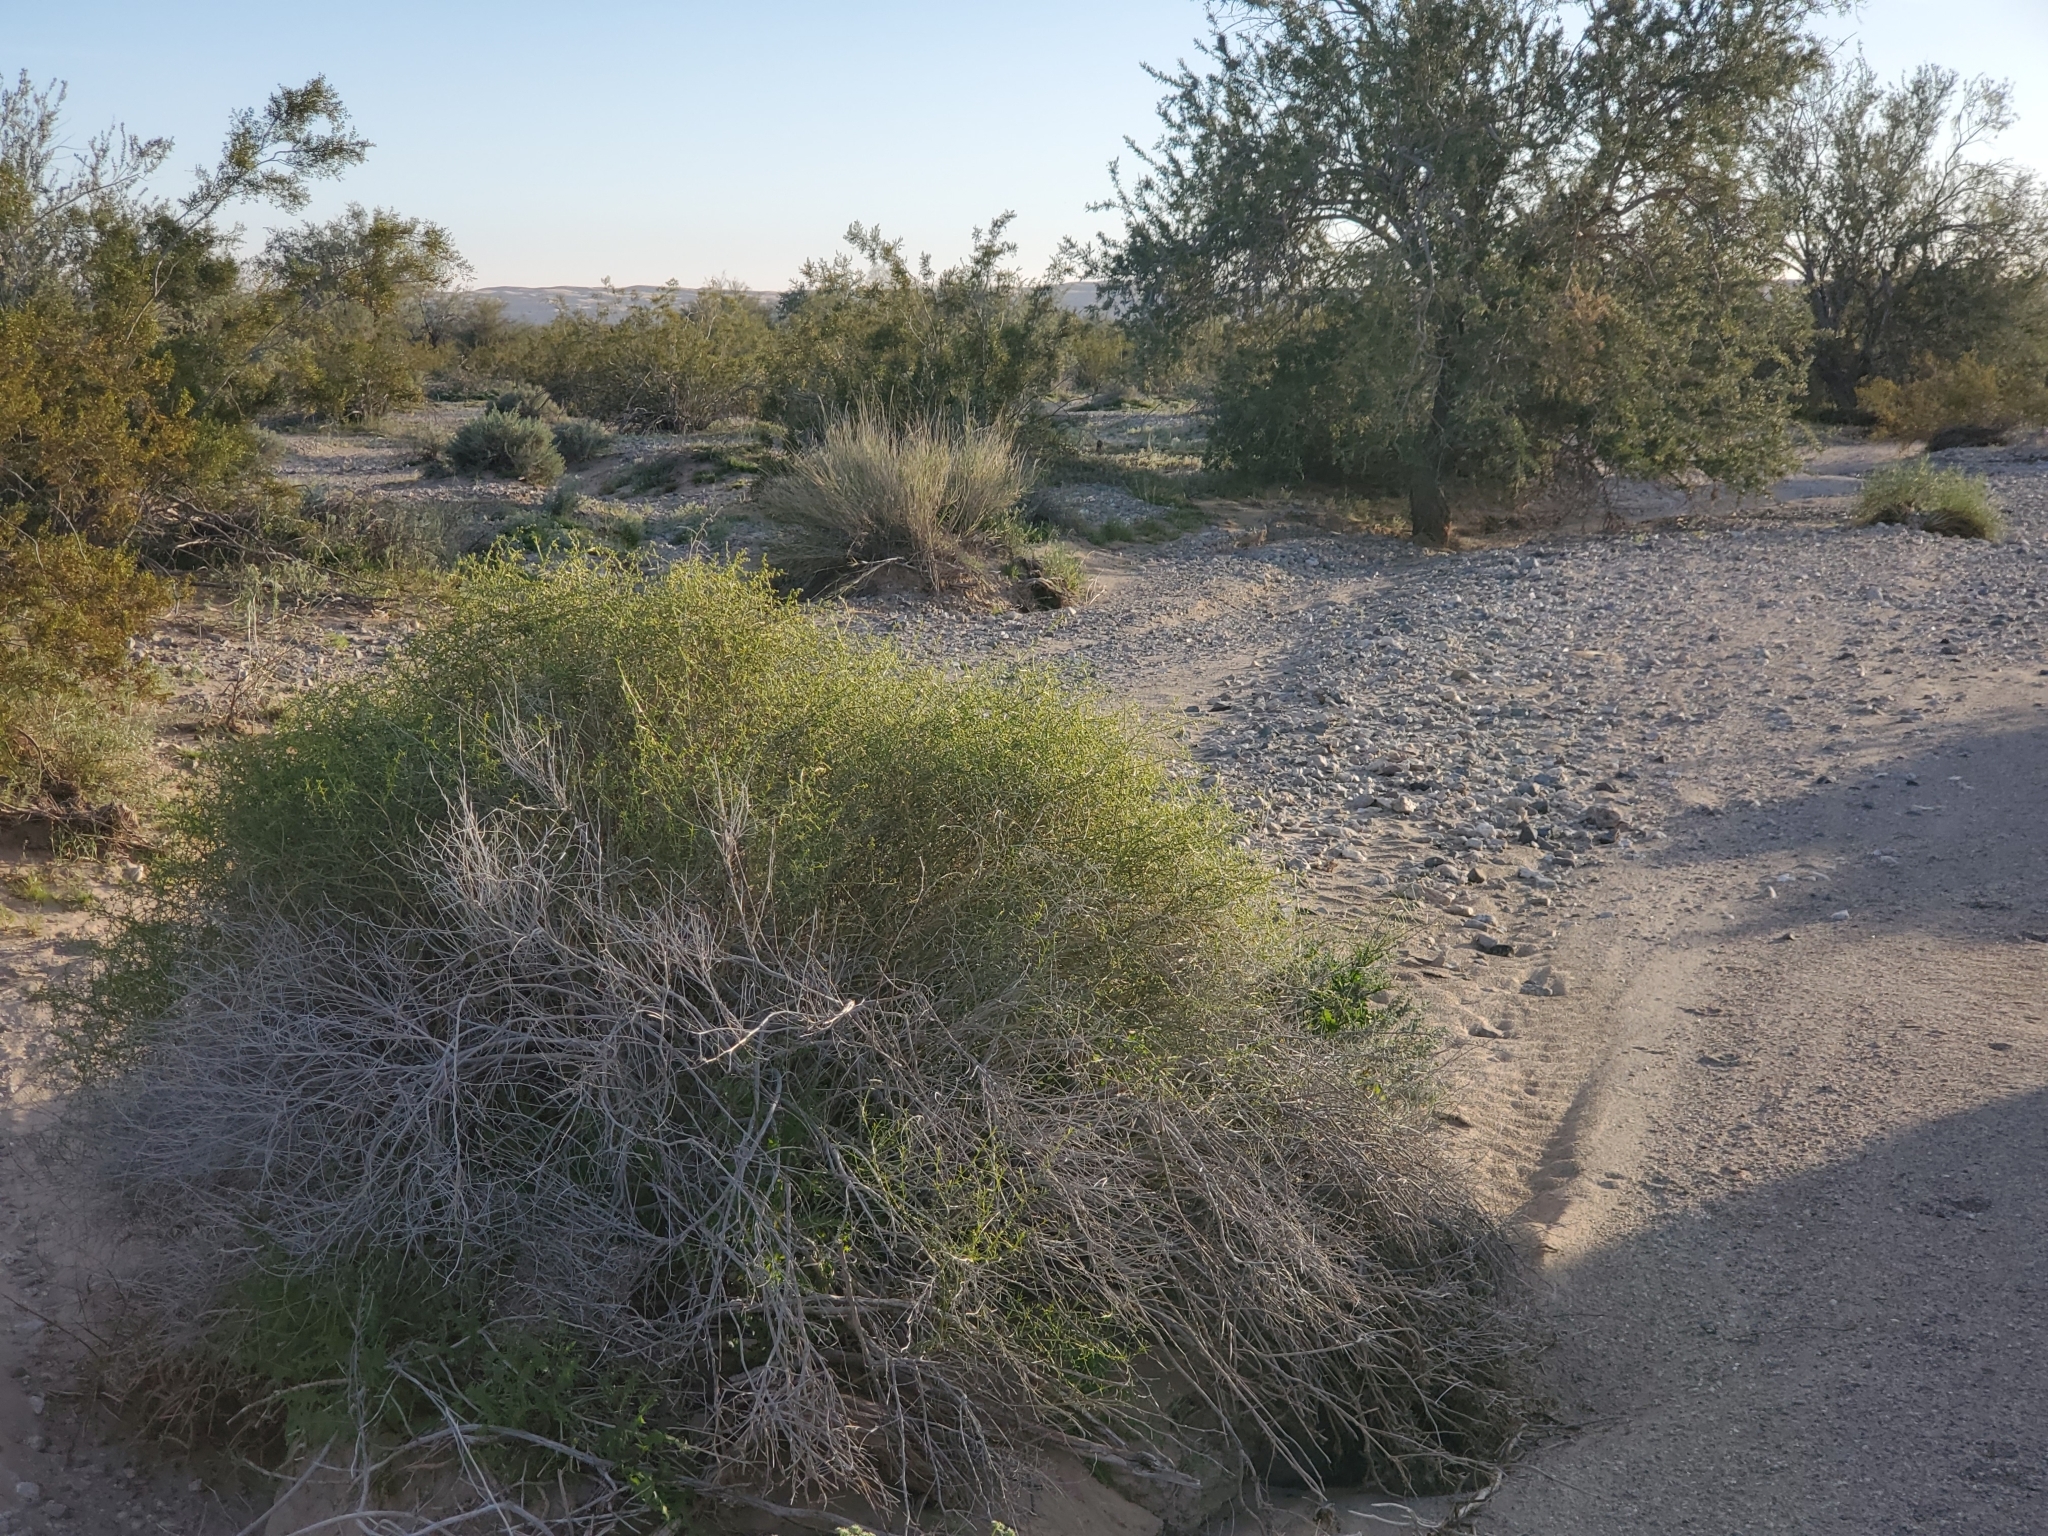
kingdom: Plantae
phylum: Tracheophyta
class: Magnoliopsida
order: Asterales
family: Asteraceae
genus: Ambrosia
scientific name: Ambrosia salsola
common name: Burrobrush
